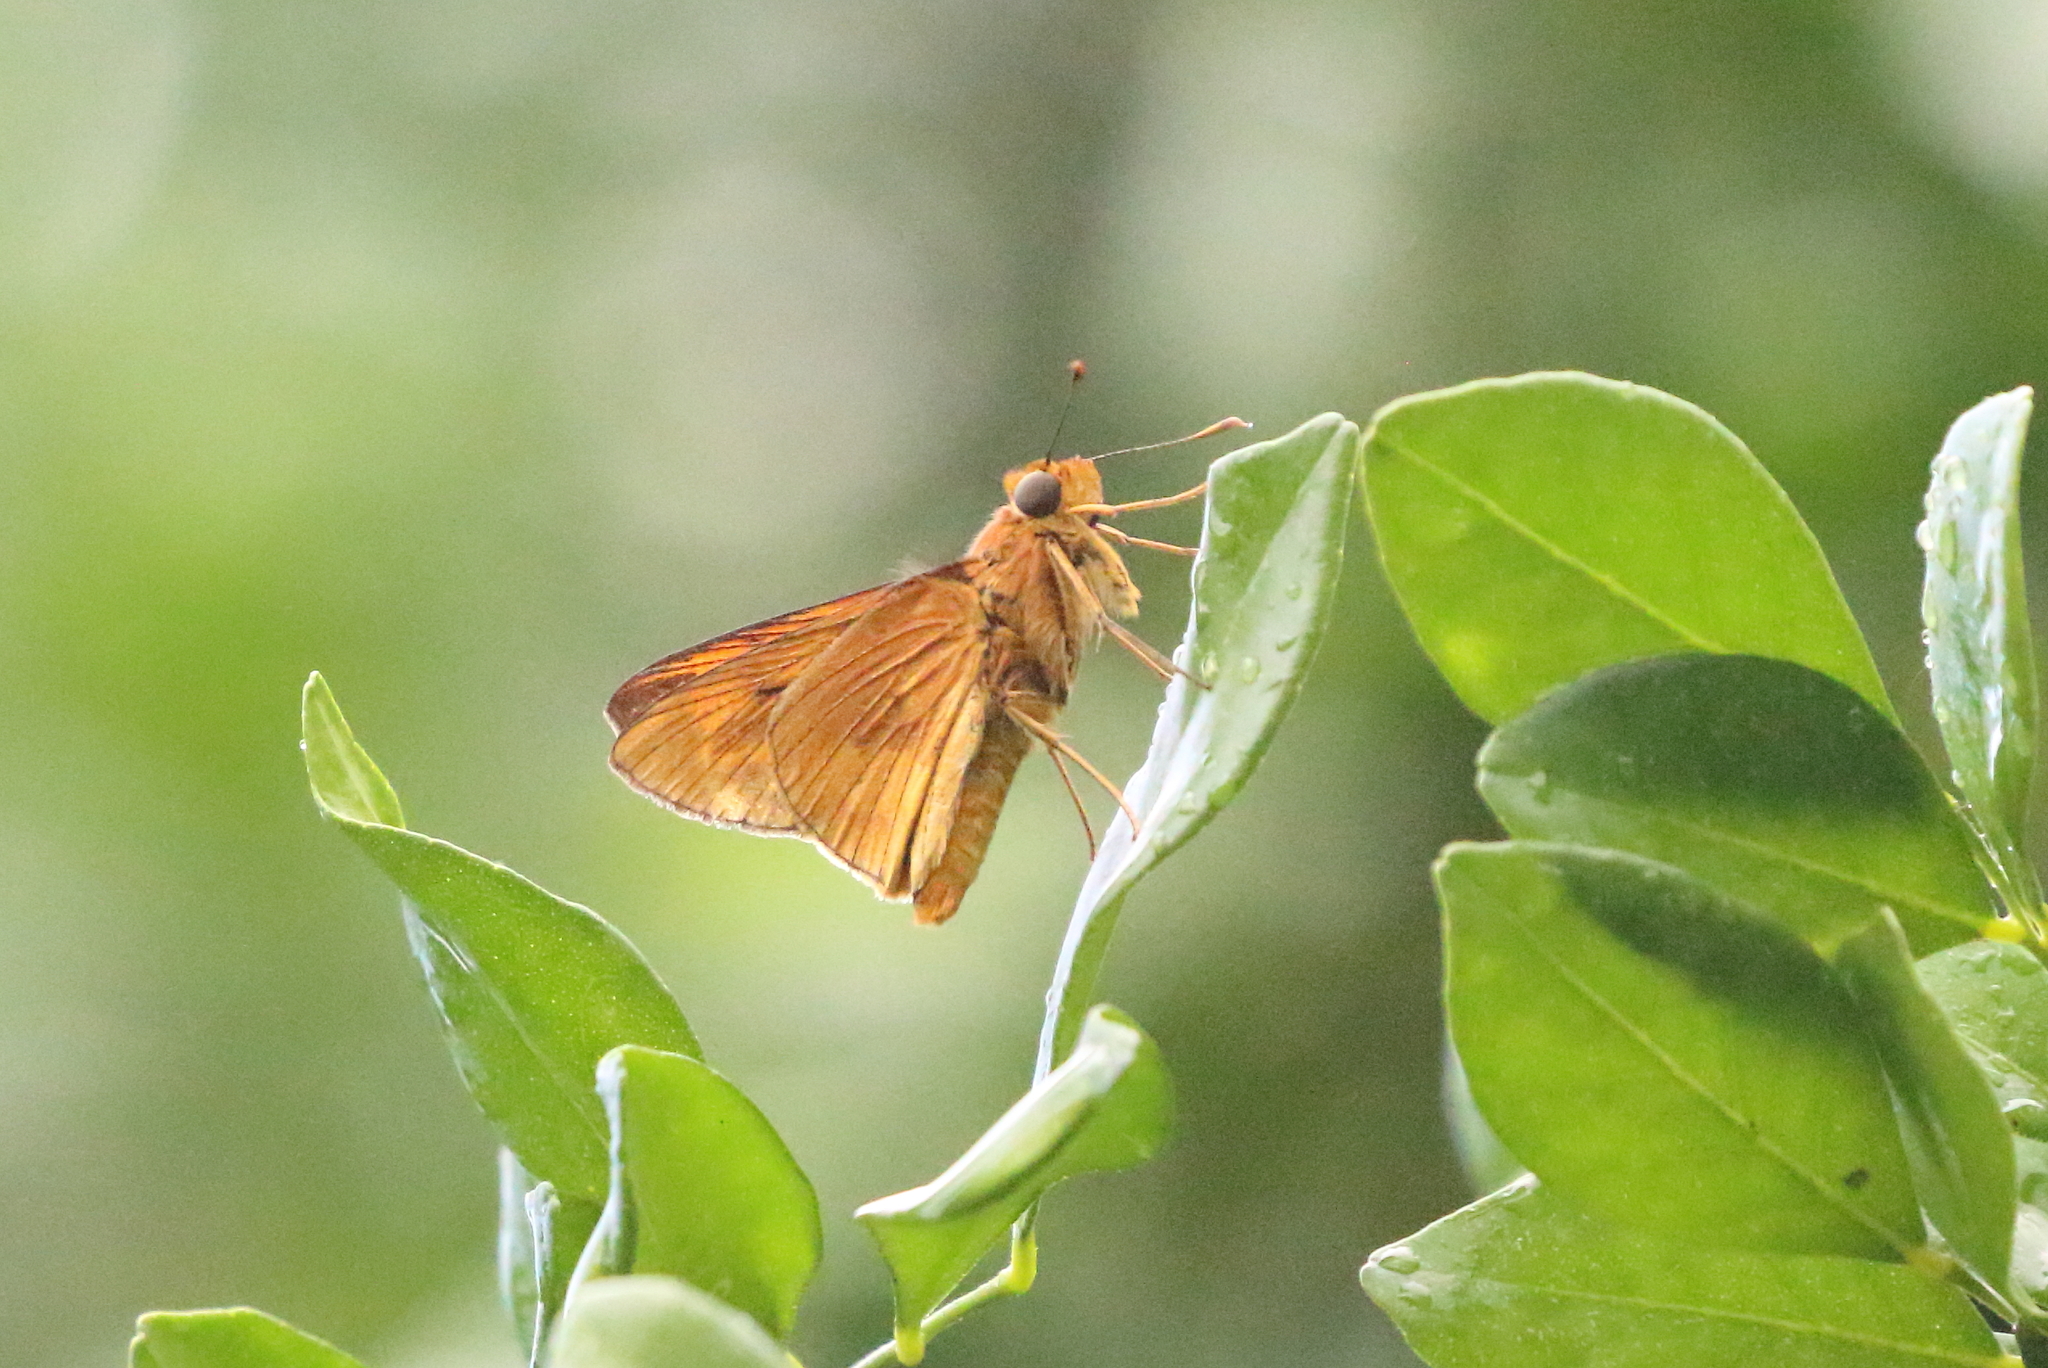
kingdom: Animalia
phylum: Arthropoda
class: Insecta
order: Lepidoptera
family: Hesperiidae
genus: Cephrenes
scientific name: Cephrenes augiades
